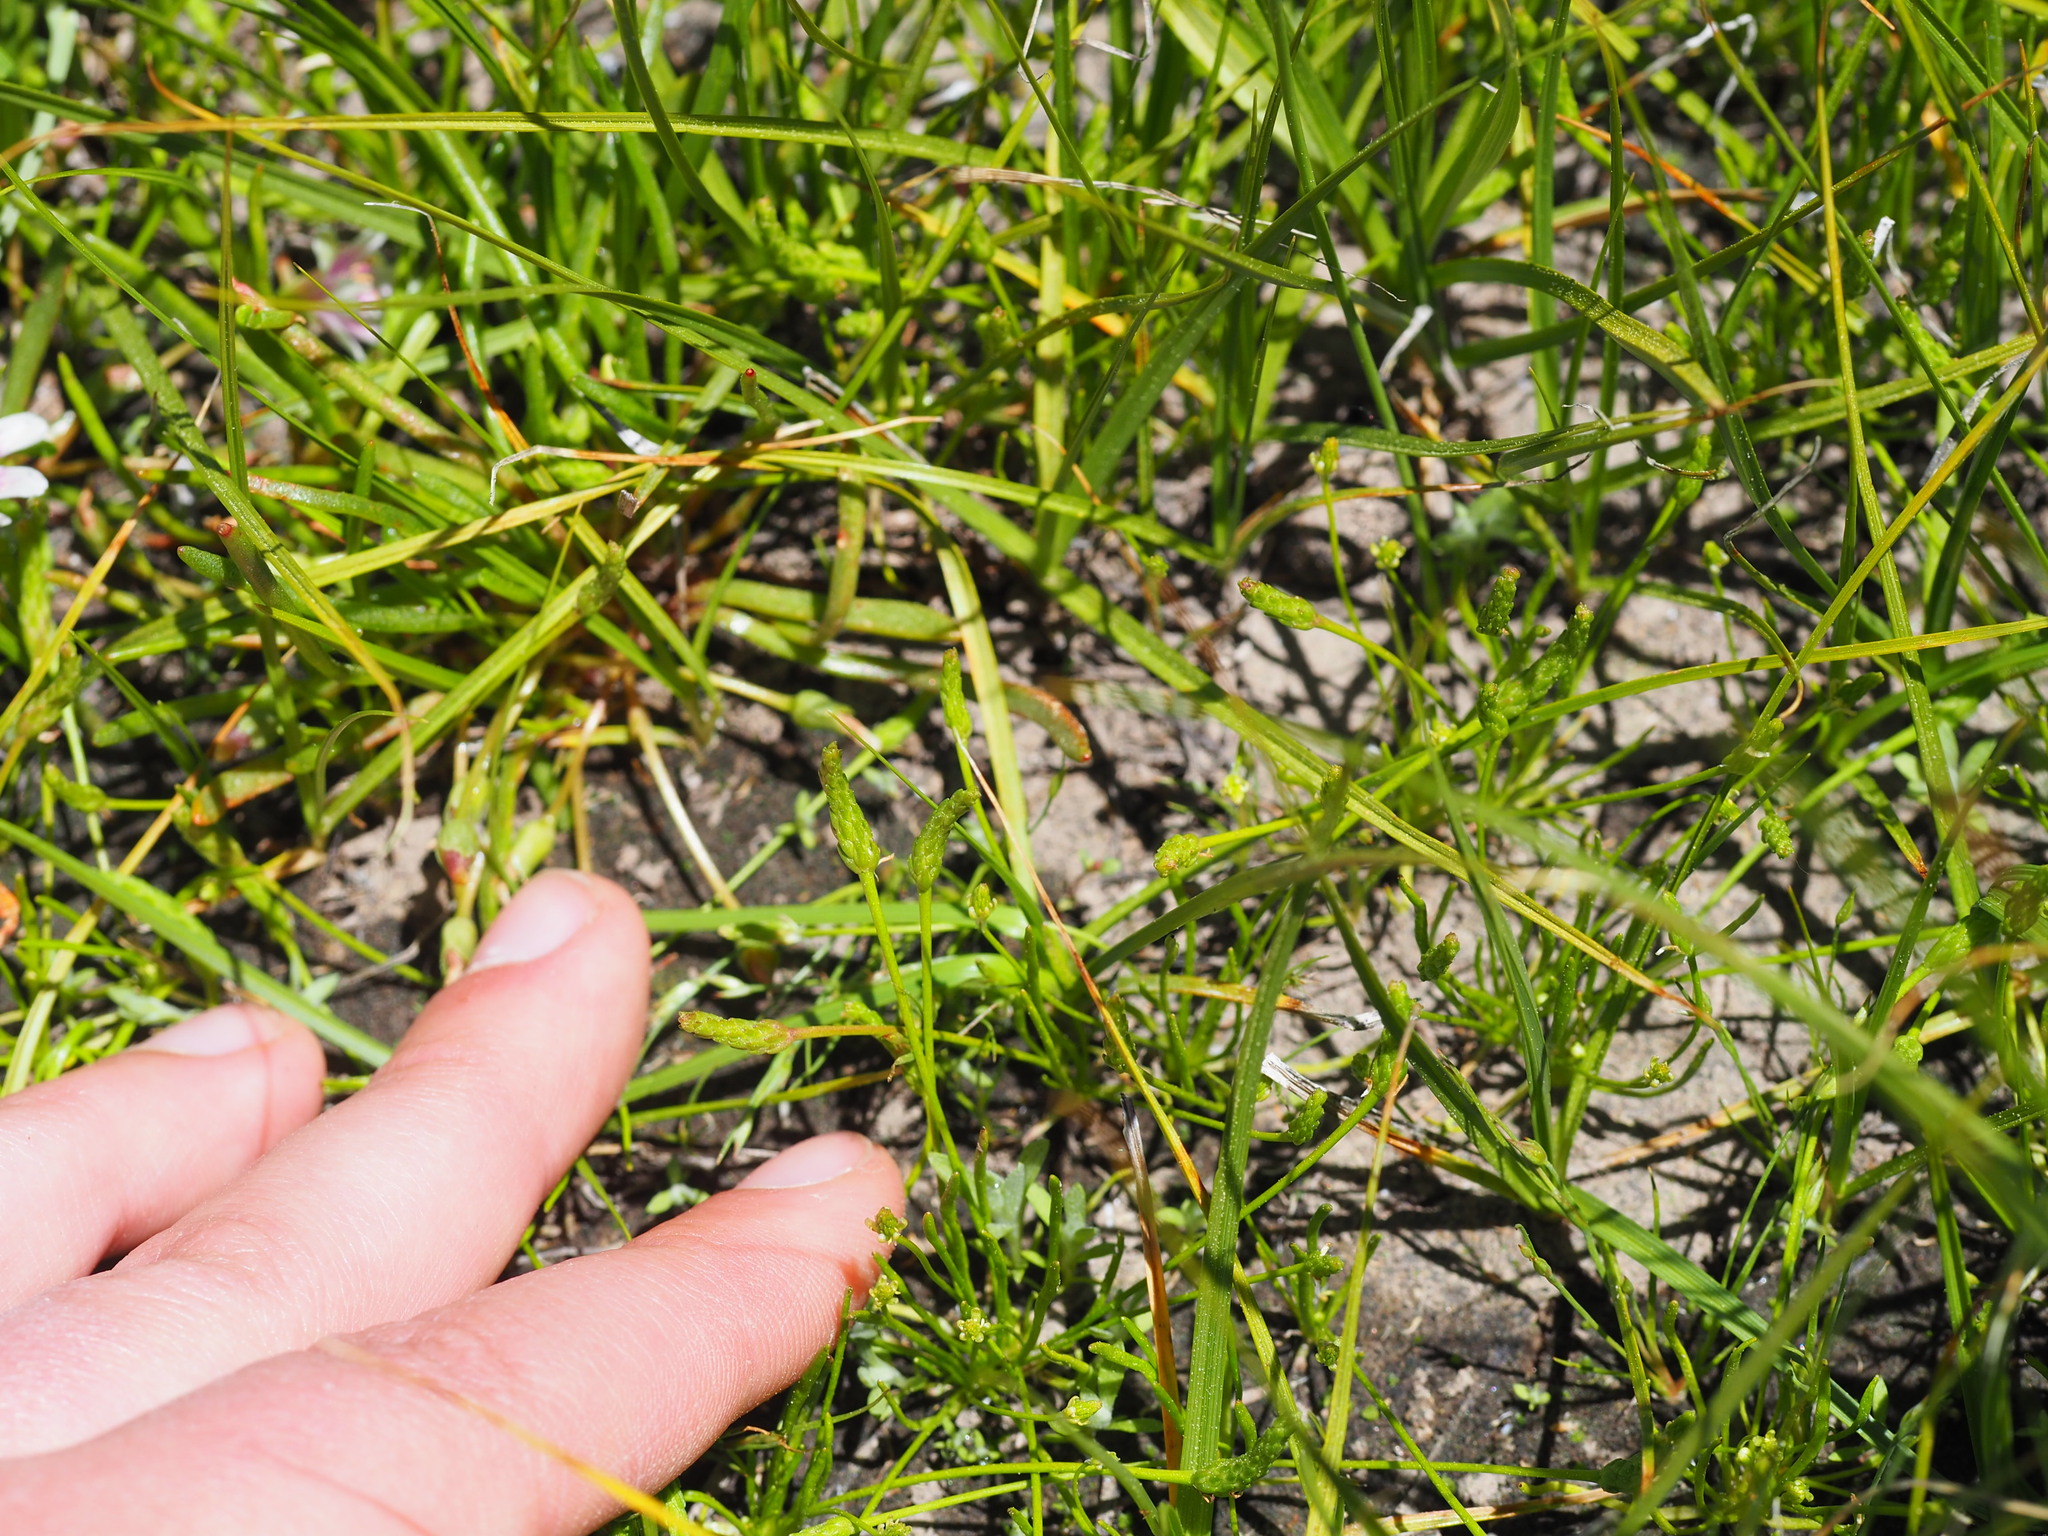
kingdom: Plantae
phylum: Tracheophyta
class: Magnoliopsida
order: Ranunculales
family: Ranunculaceae
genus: Myosurus
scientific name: Myosurus minimus
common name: Mousetail
